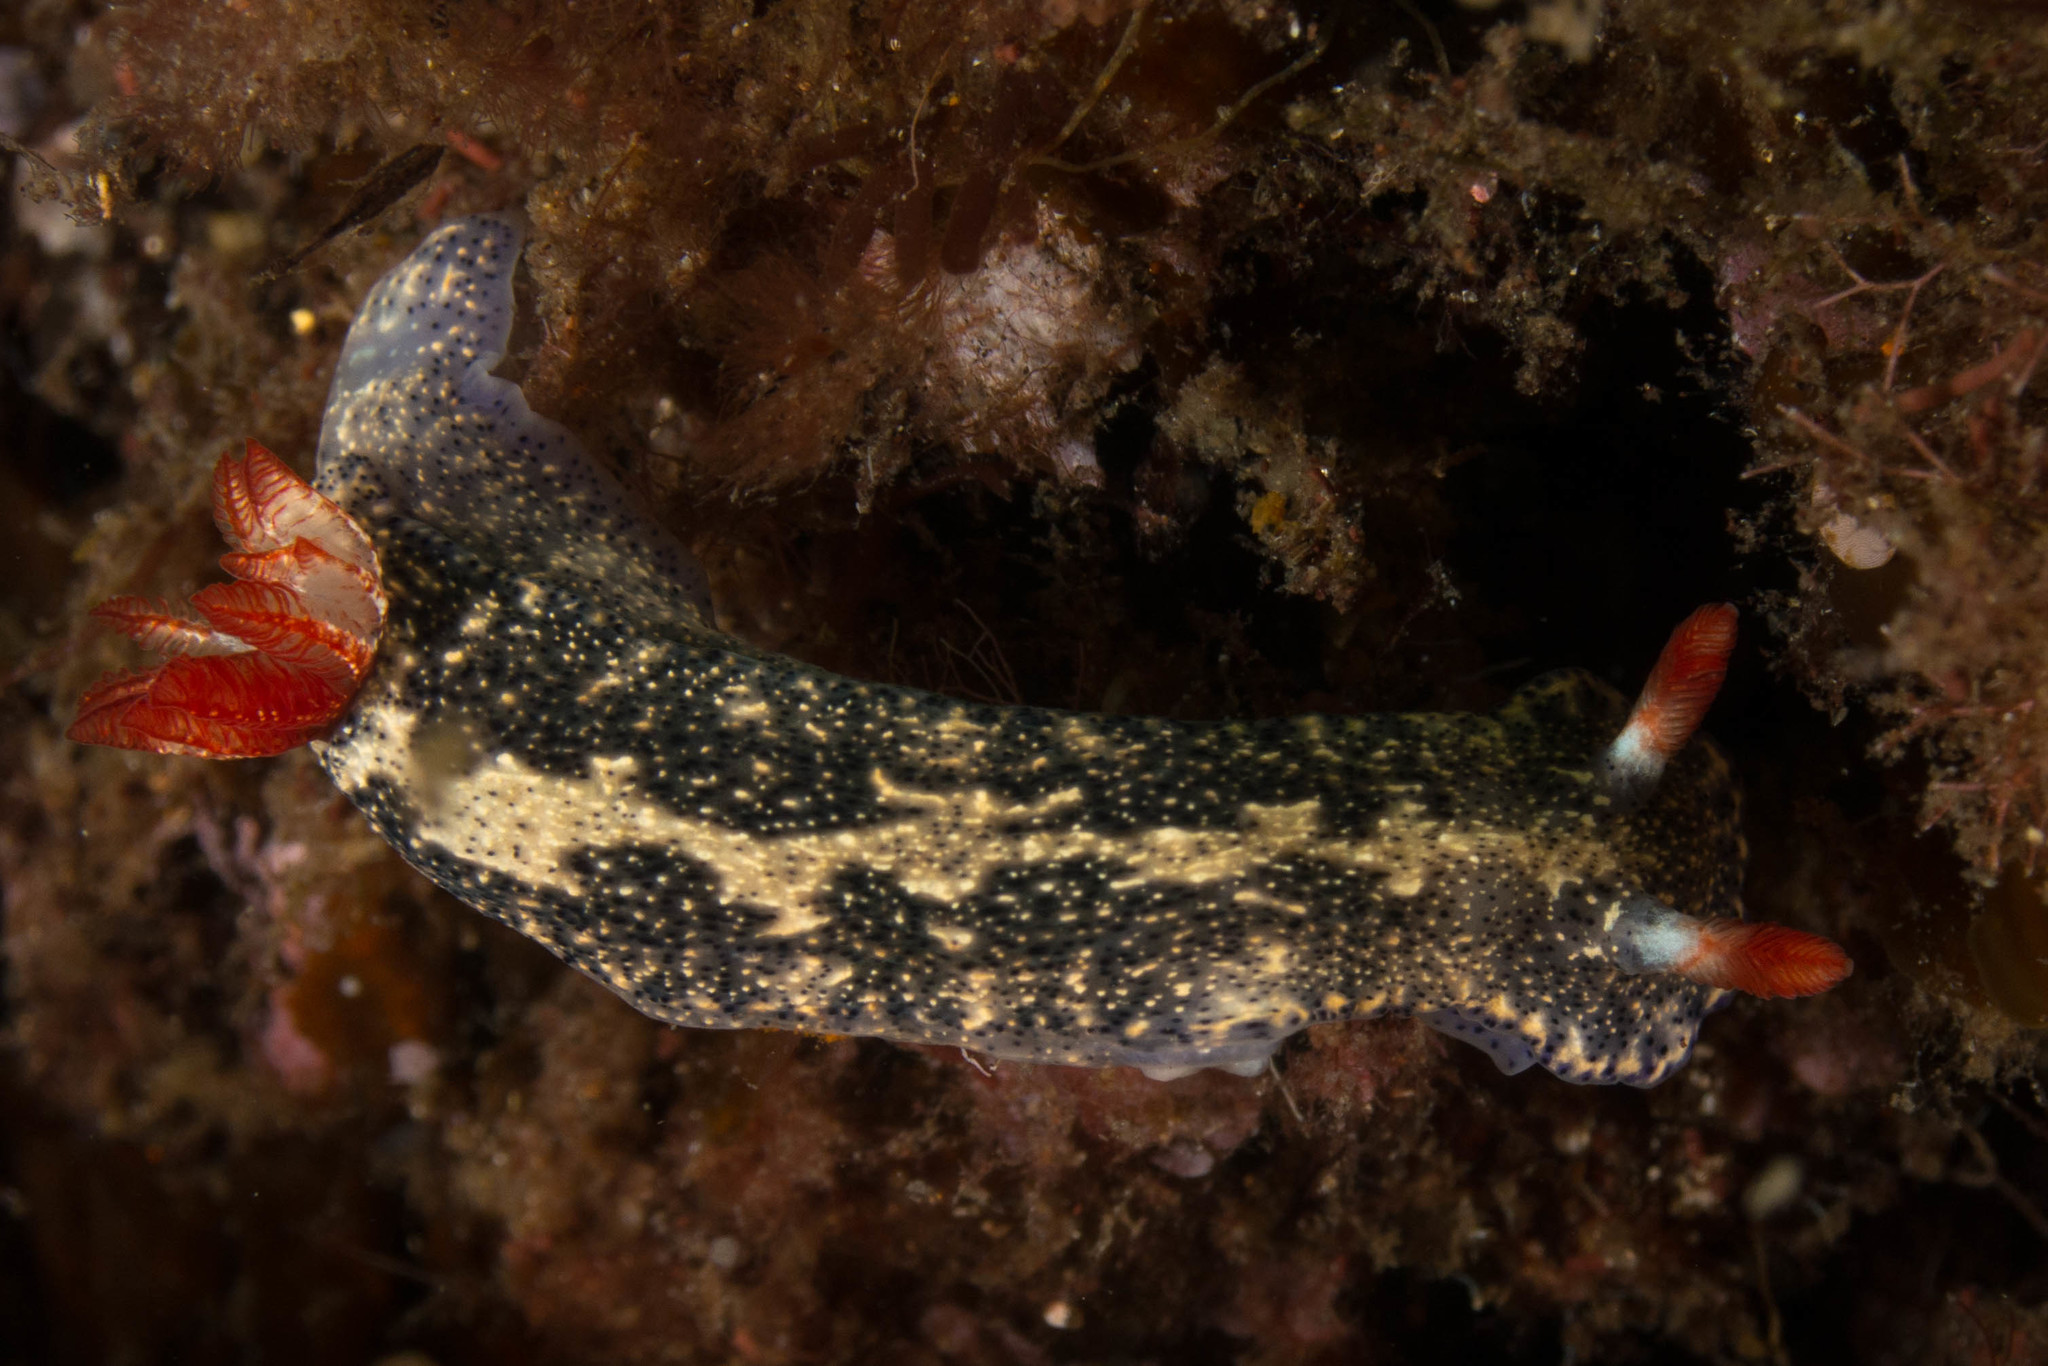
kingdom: Animalia
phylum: Mollusca
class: Gastropoda
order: Nudibranchia
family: Chromodorididae
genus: Hypselodoris
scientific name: Hypselodoris saintvincentius
